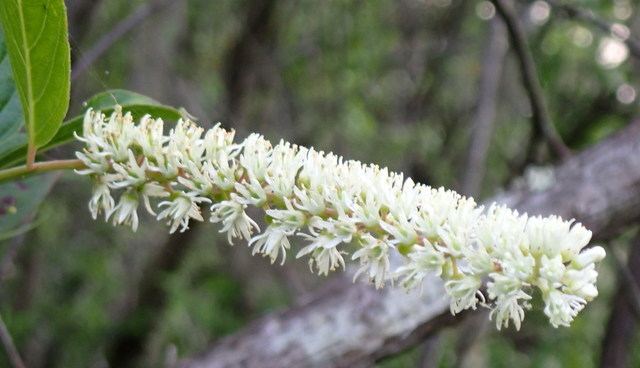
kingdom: Plantae
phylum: Tracheophyta
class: Magnoliopsida
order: Saxifragales
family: Iteaceae
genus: Itea
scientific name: Itea virginica
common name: Sweetspire
